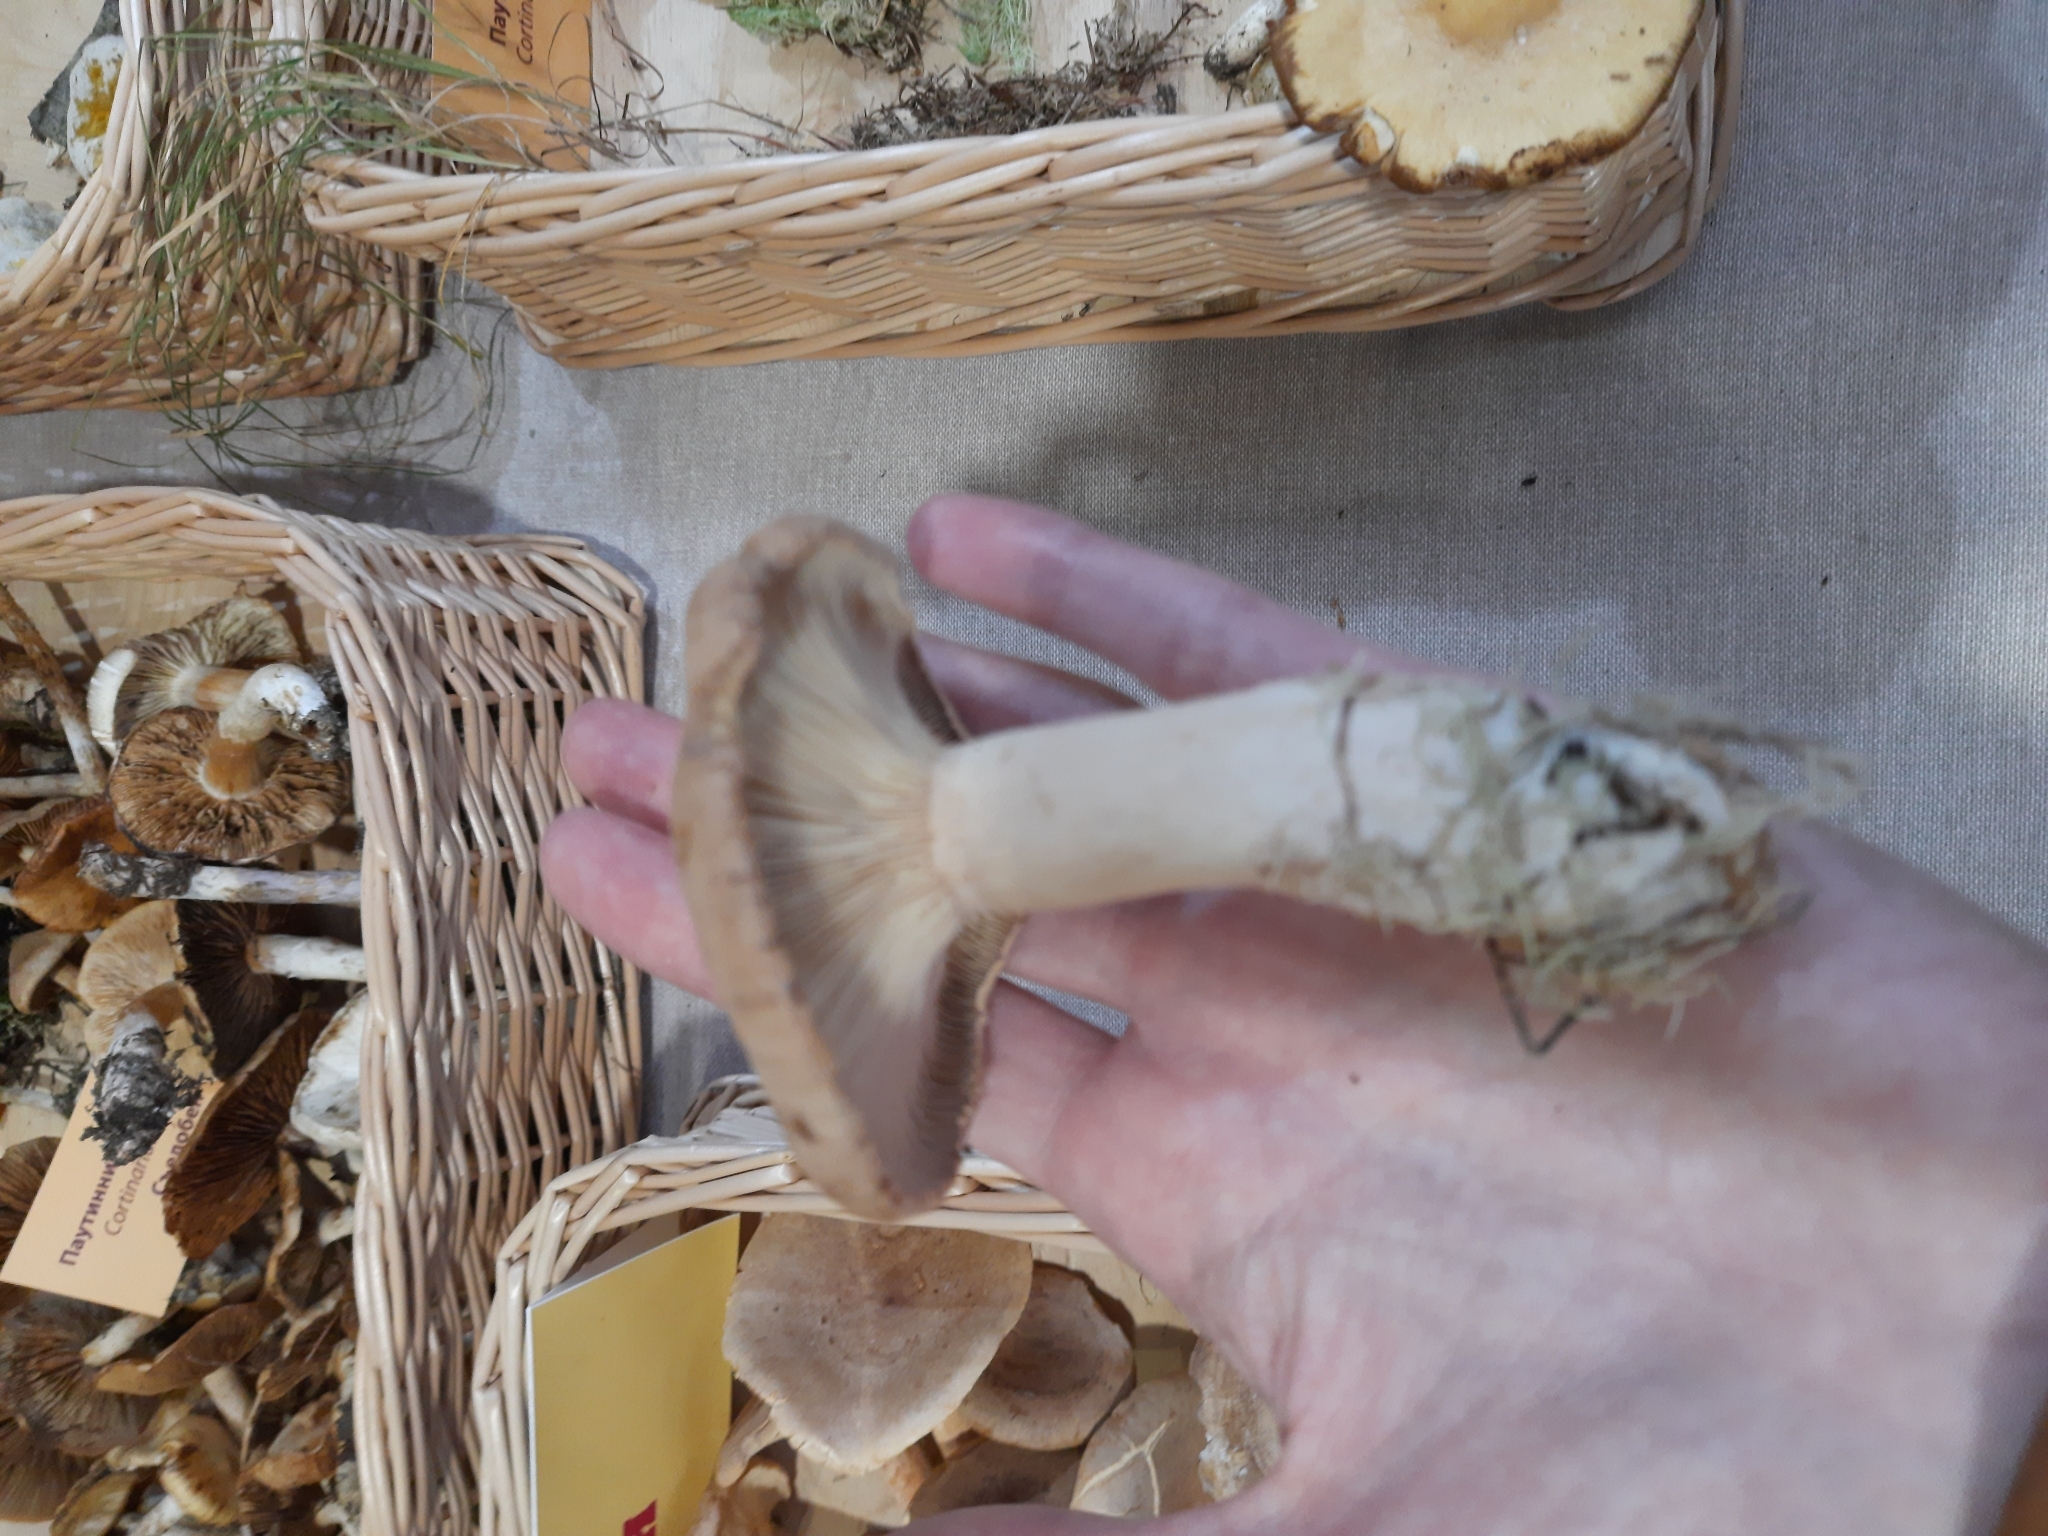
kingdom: Fungi
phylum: Basidiomycota
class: Agaricomycetes
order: Russulales
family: Russulaceae
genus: Lactarius
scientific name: Lactarius helvus
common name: Fenugreek milkcap
